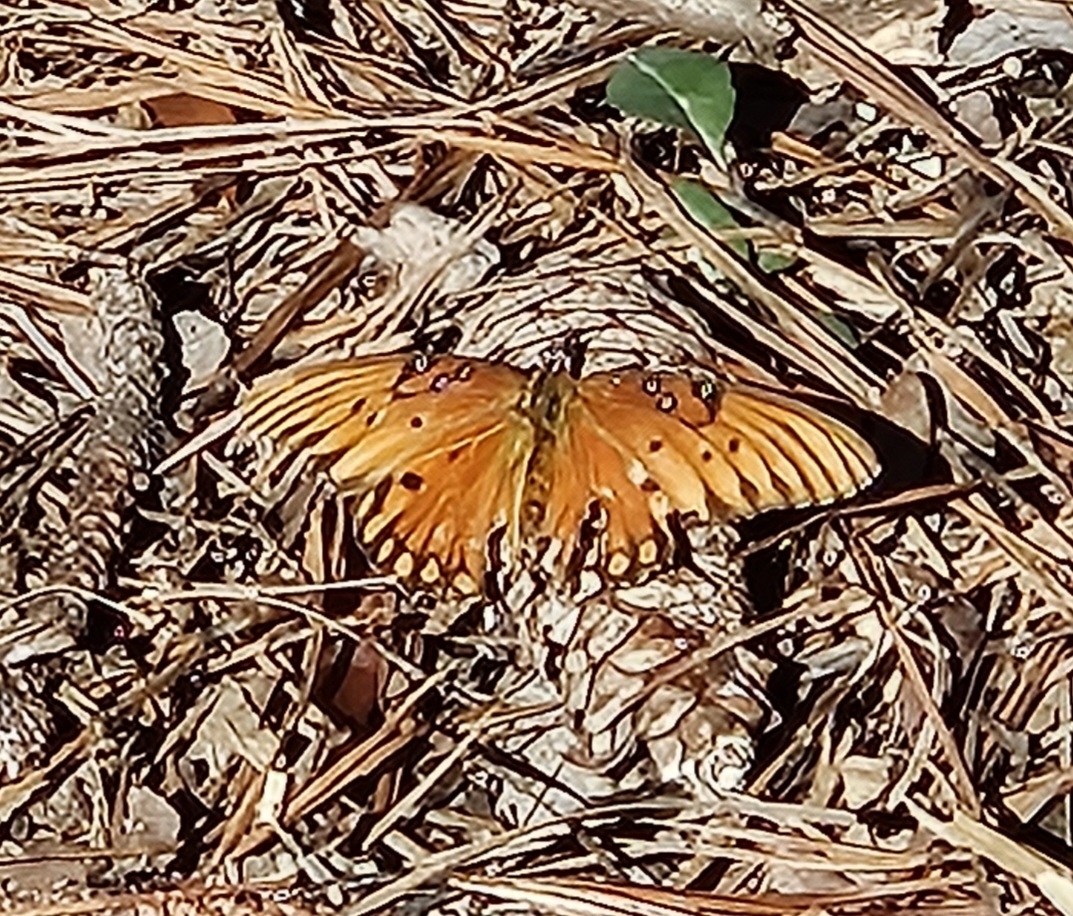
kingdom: Animalia
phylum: Arthropoda
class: Insecta
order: Lepidoptera
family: Nymphalidae
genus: Dione
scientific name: Dione vanillae
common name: Gulf fritillary
